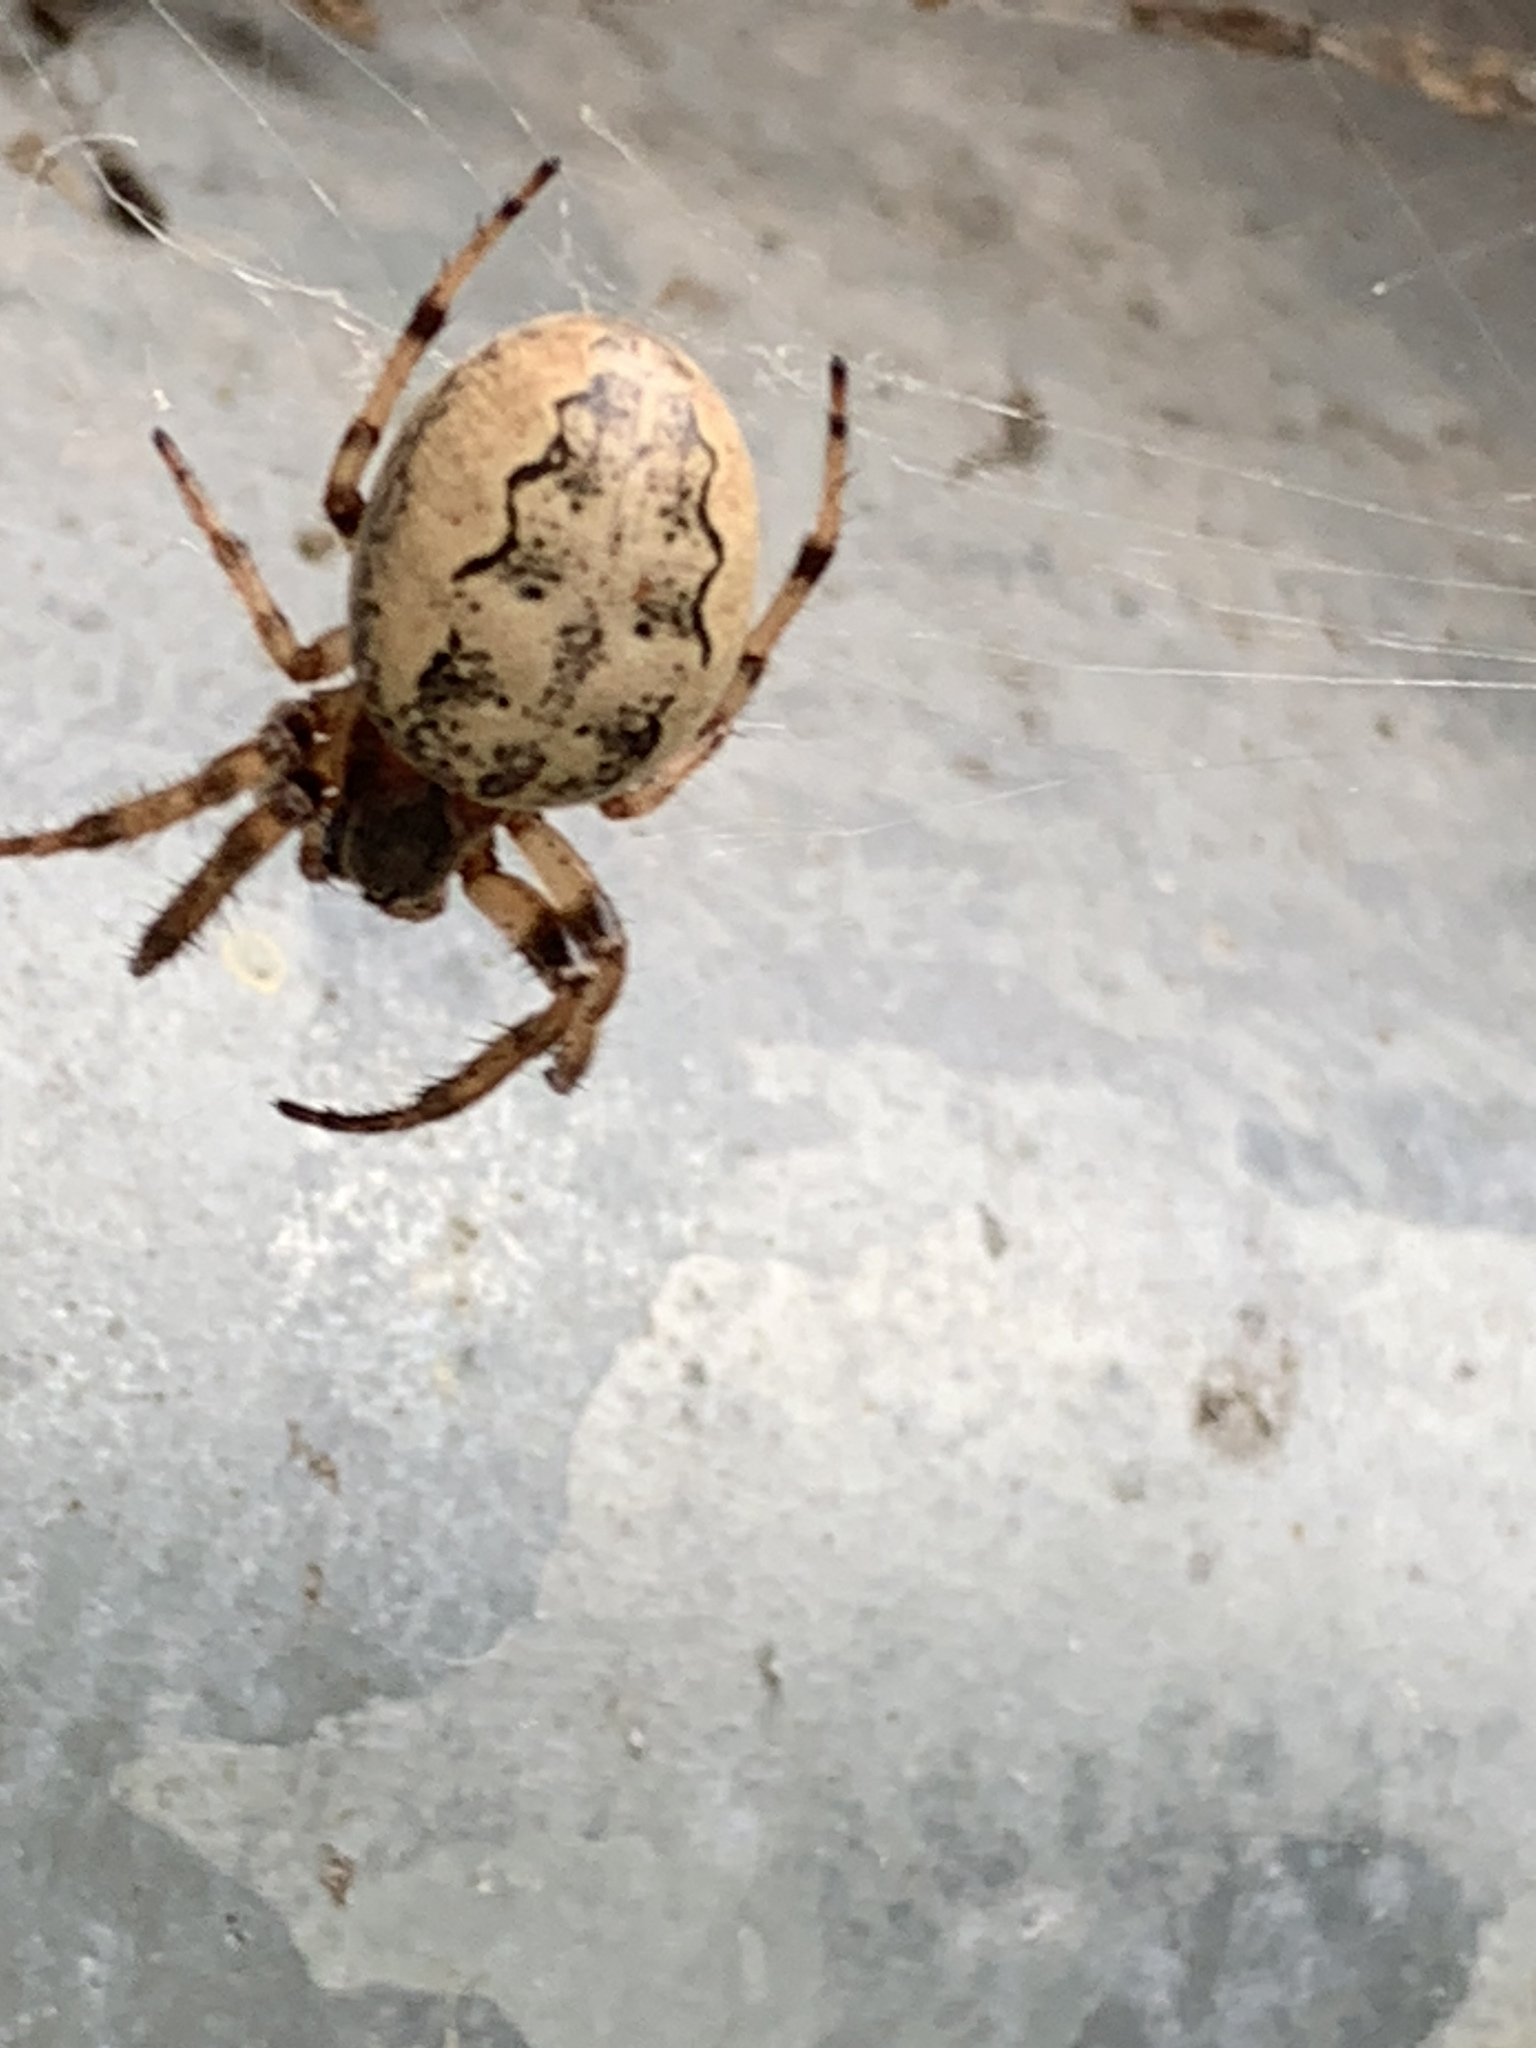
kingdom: Animalia
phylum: Arthropoda
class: Arachnida
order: Araneae
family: Araneidae
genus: Larinioides
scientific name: Larinioides cornutus
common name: Furrow orbweaver
